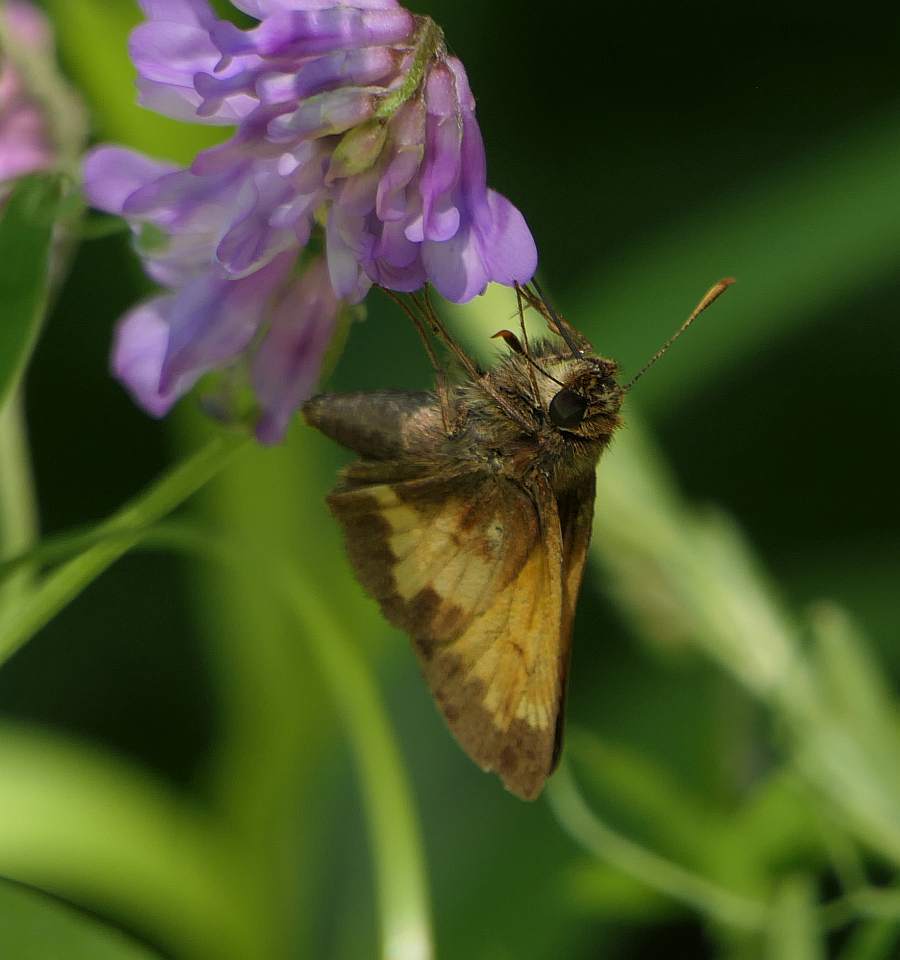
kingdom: Animalia
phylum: Arthropoda
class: Insecta
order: Lepidoptera
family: Hesperiidae
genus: Lon
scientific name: Lon hobomok
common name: Hobomok skipper
